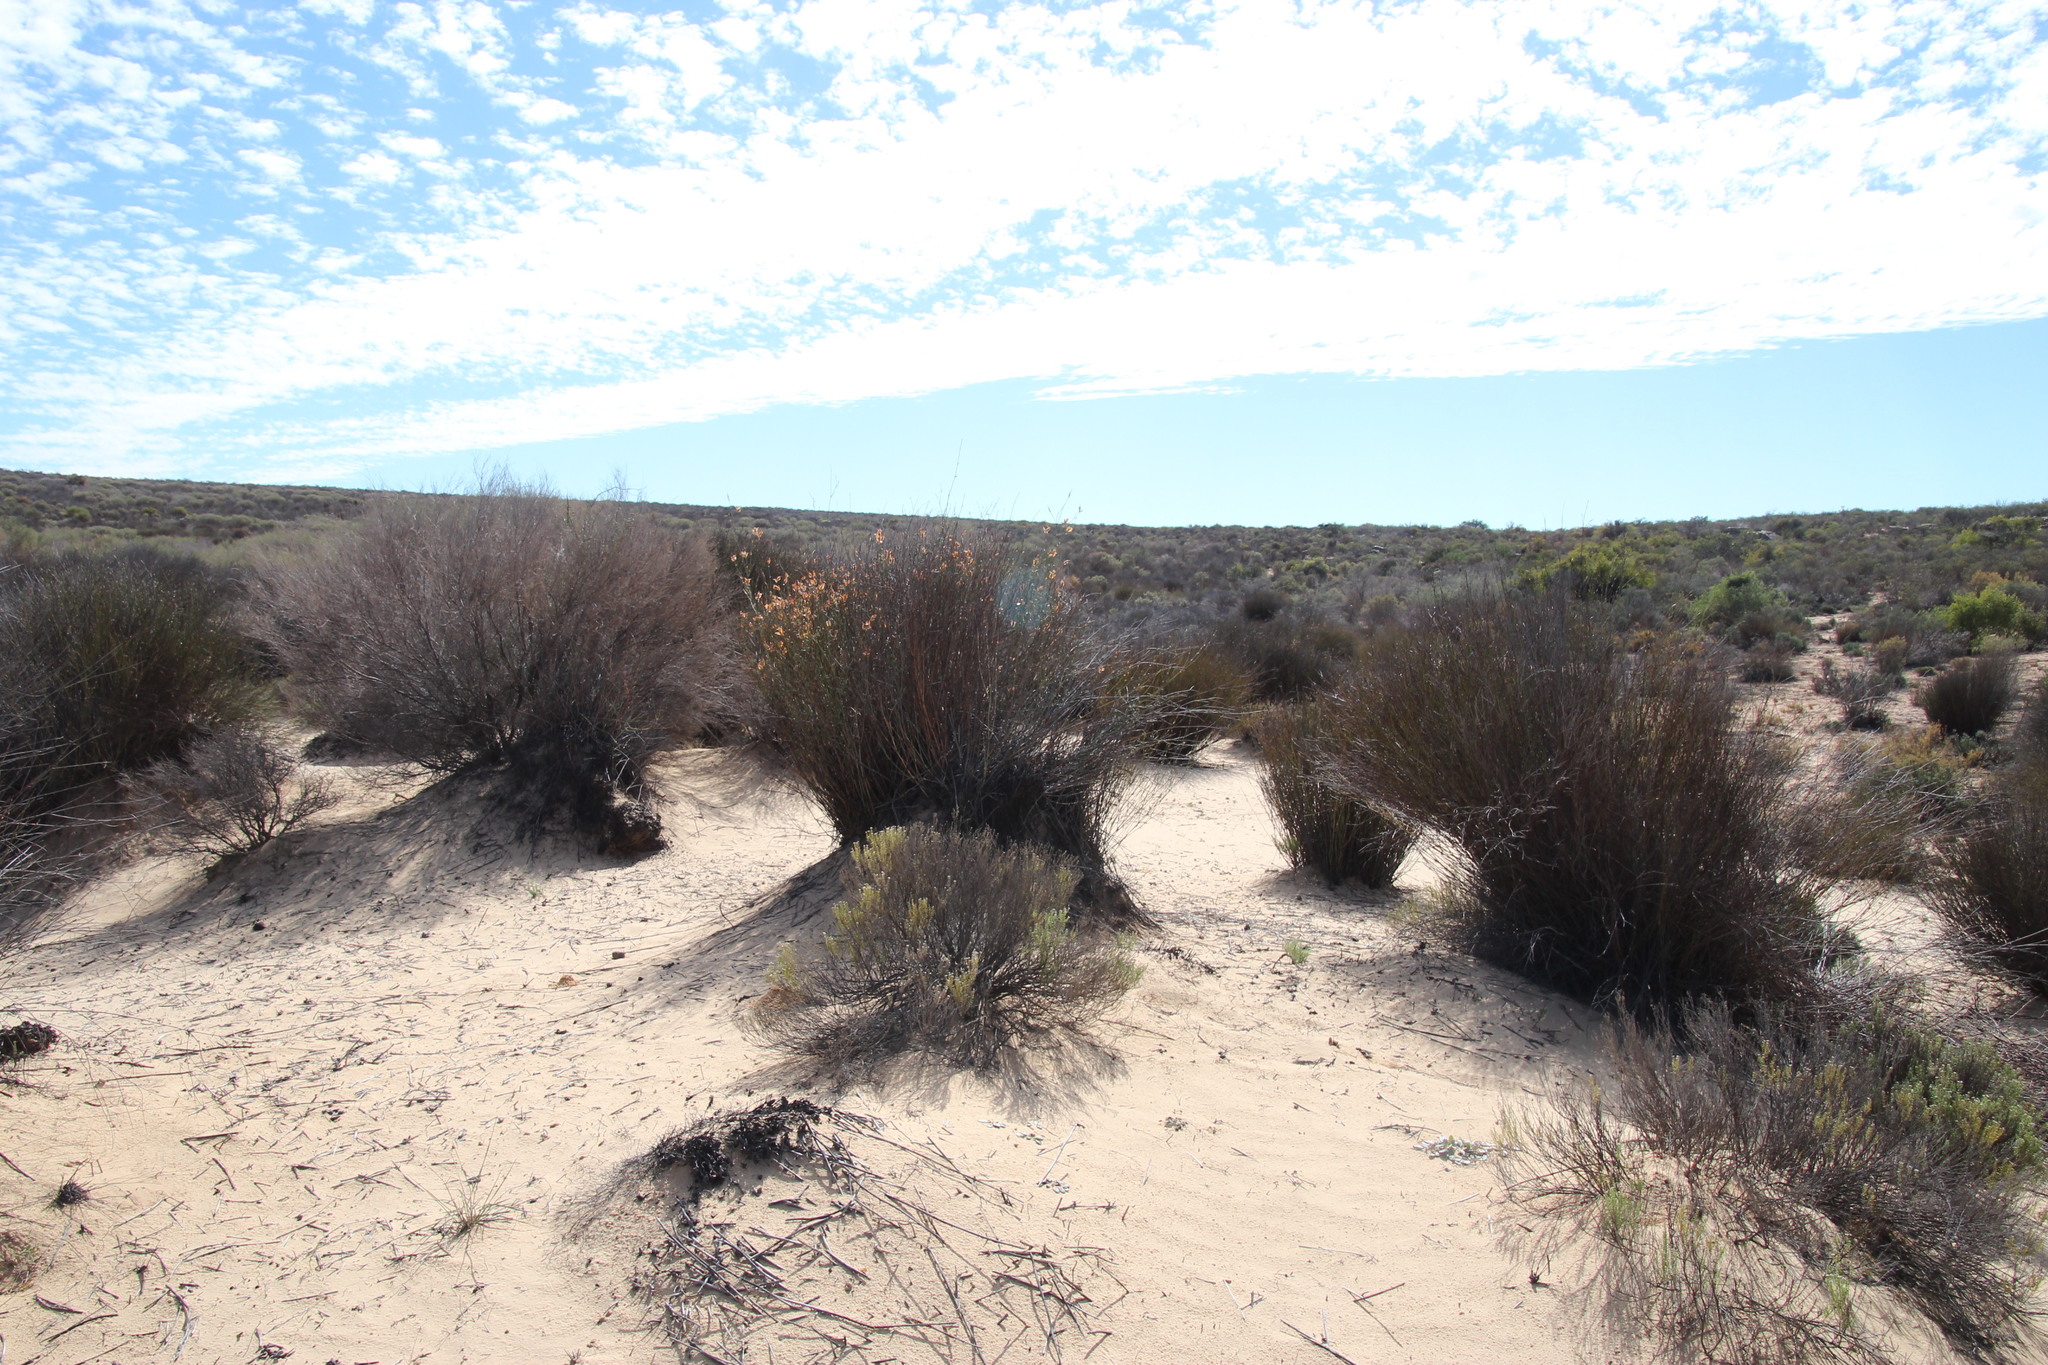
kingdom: Plantae
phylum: Tracheophyta
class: Liliopsida
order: Poales
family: Restionaceae
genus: Willdenowia
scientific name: Willdenowia incurvata
